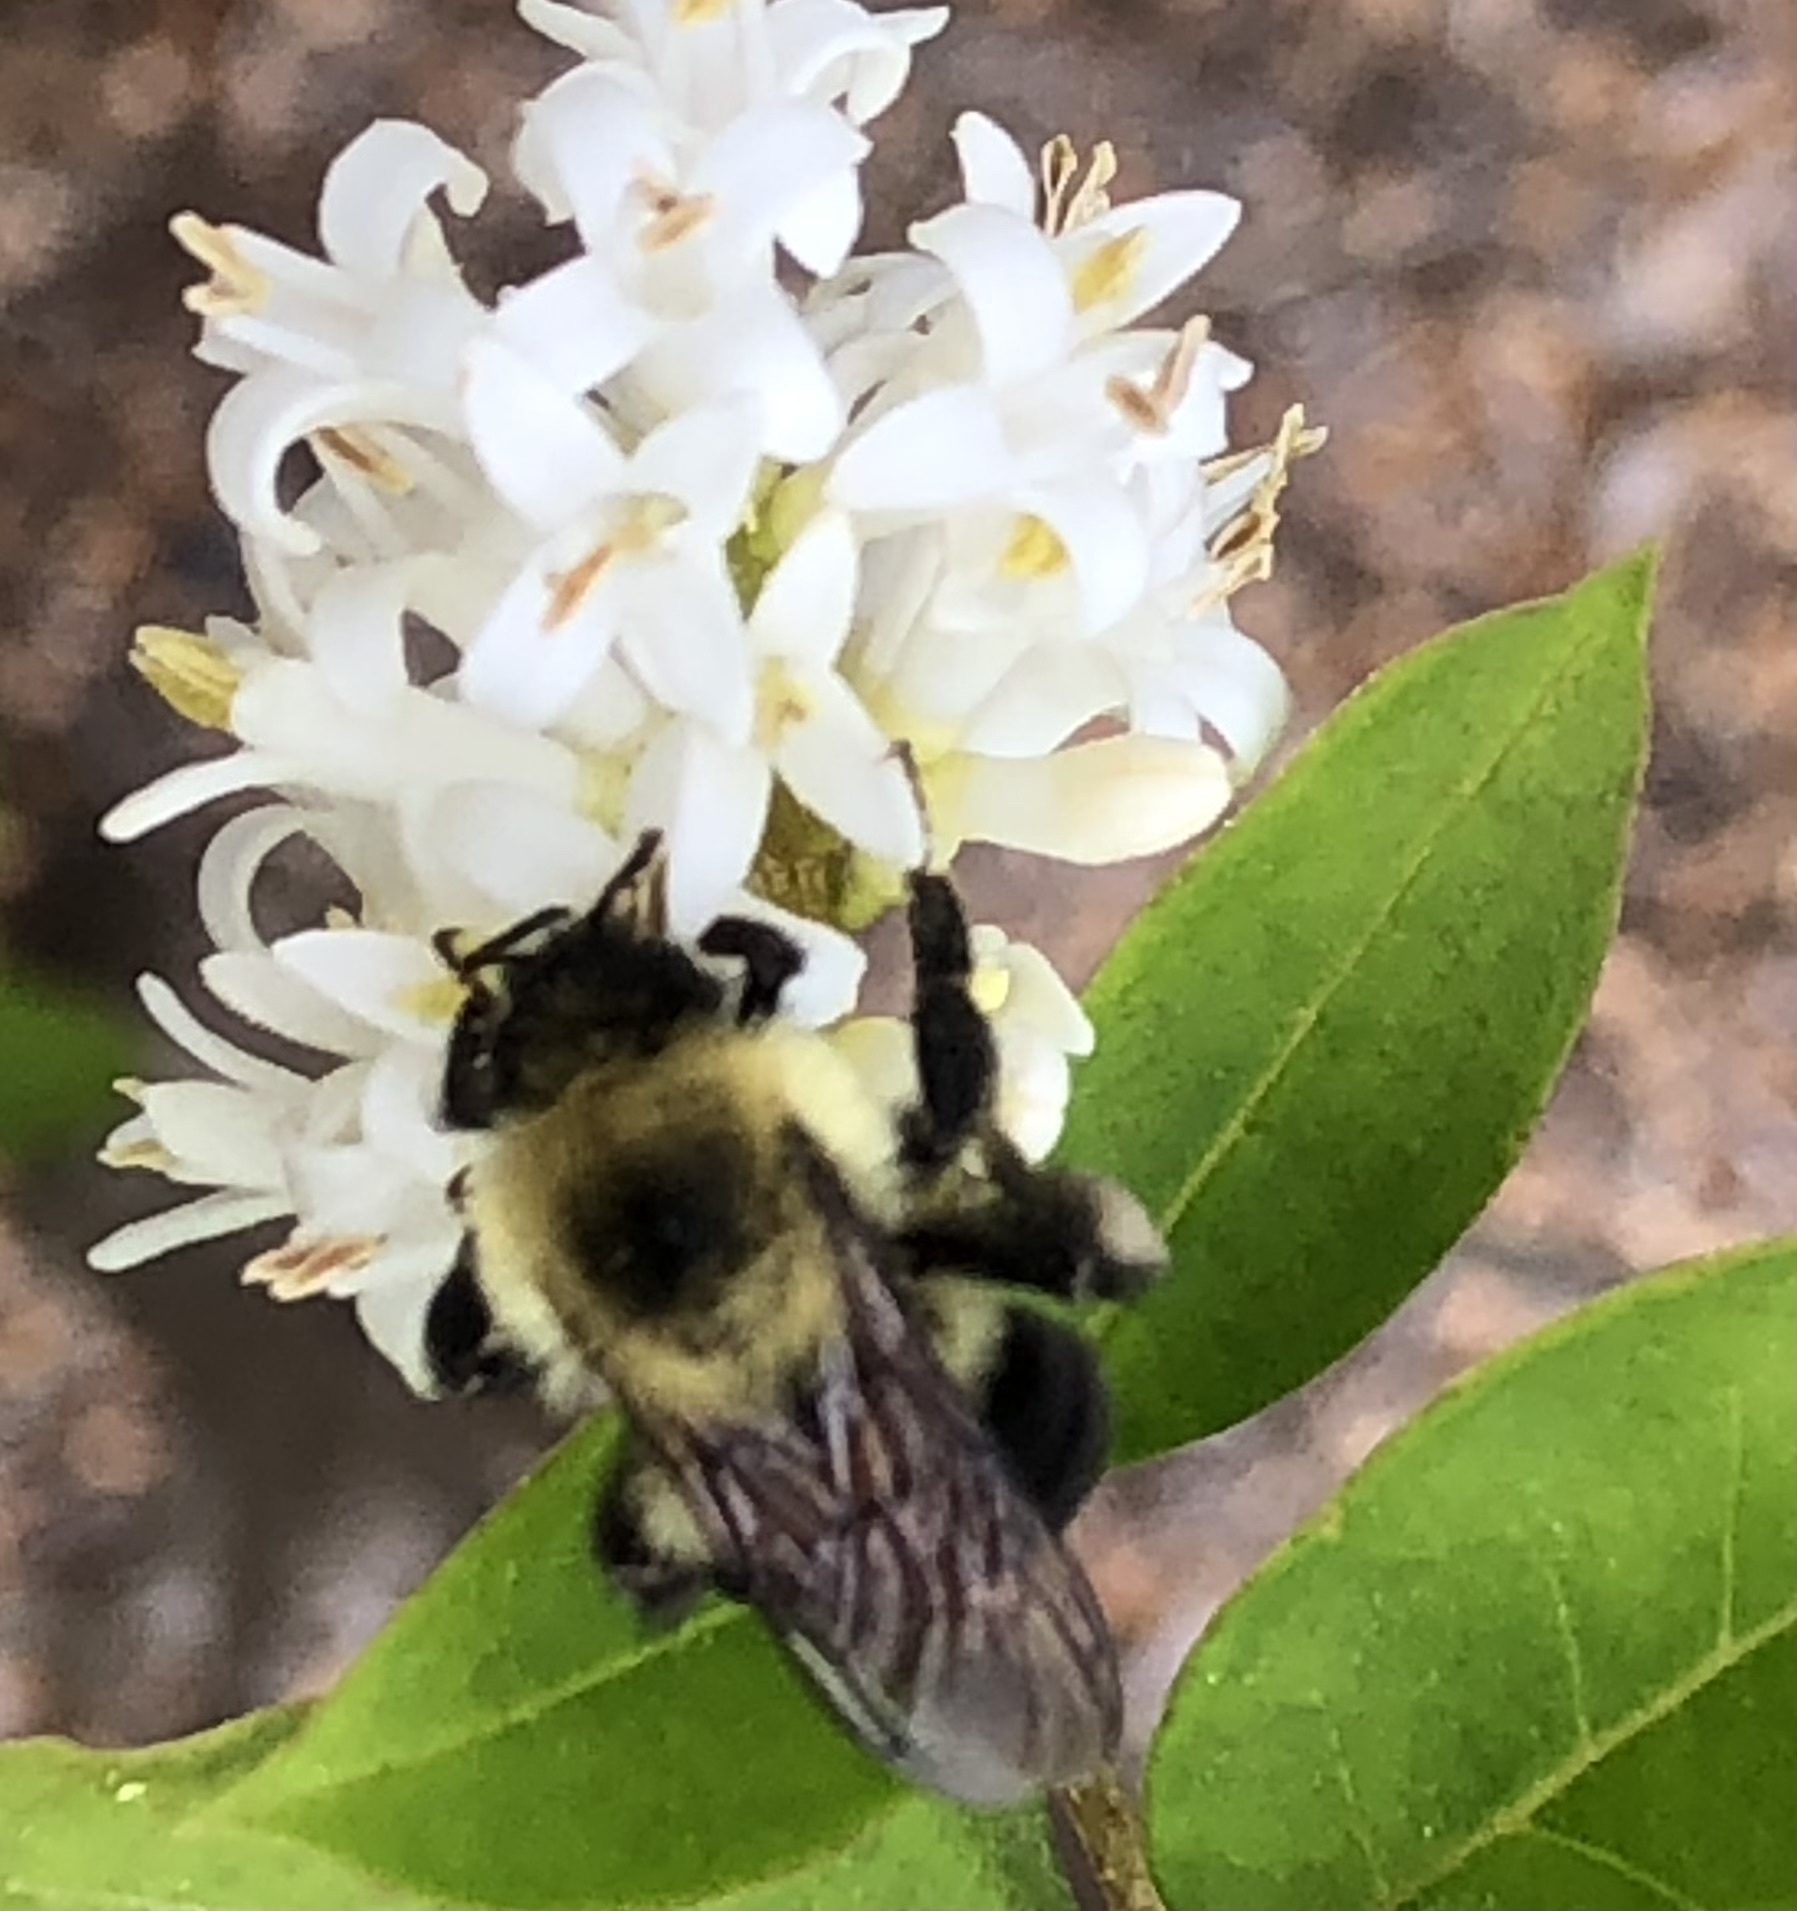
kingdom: Animalia
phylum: Arthropoda
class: Insecta
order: Hymenoptera
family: Apidae
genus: Bombus
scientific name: Bombus bimaculatus
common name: Two-spotted bumble bee
